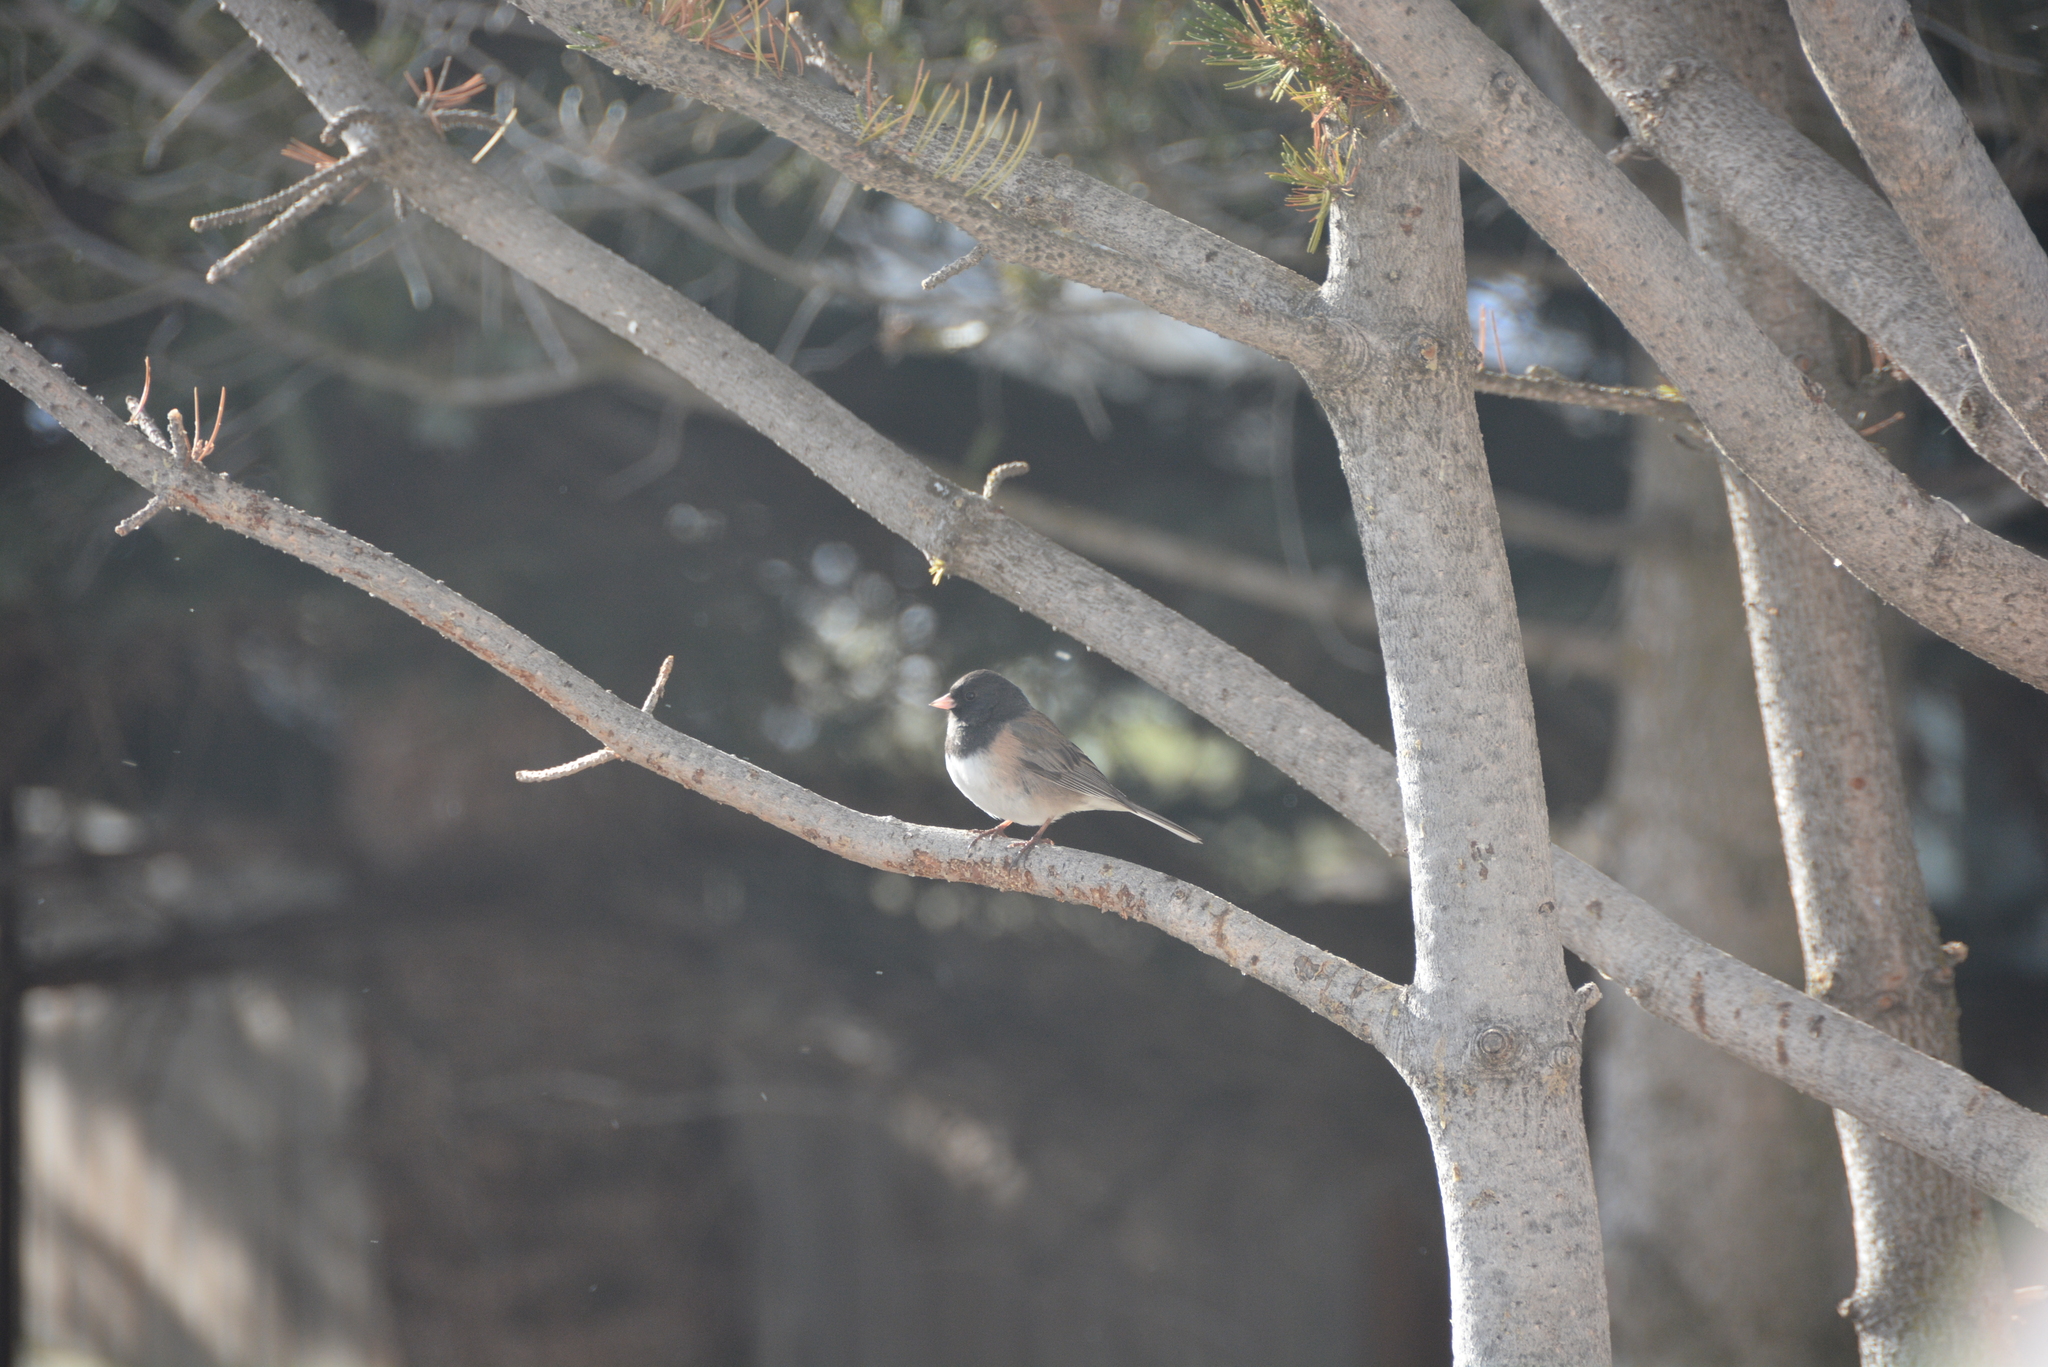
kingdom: Animalia
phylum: Chordata
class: Aves
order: Passeriformes
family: Passerellidae
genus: Junco
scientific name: Junco hyemalis
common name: Dark-eyed junco
